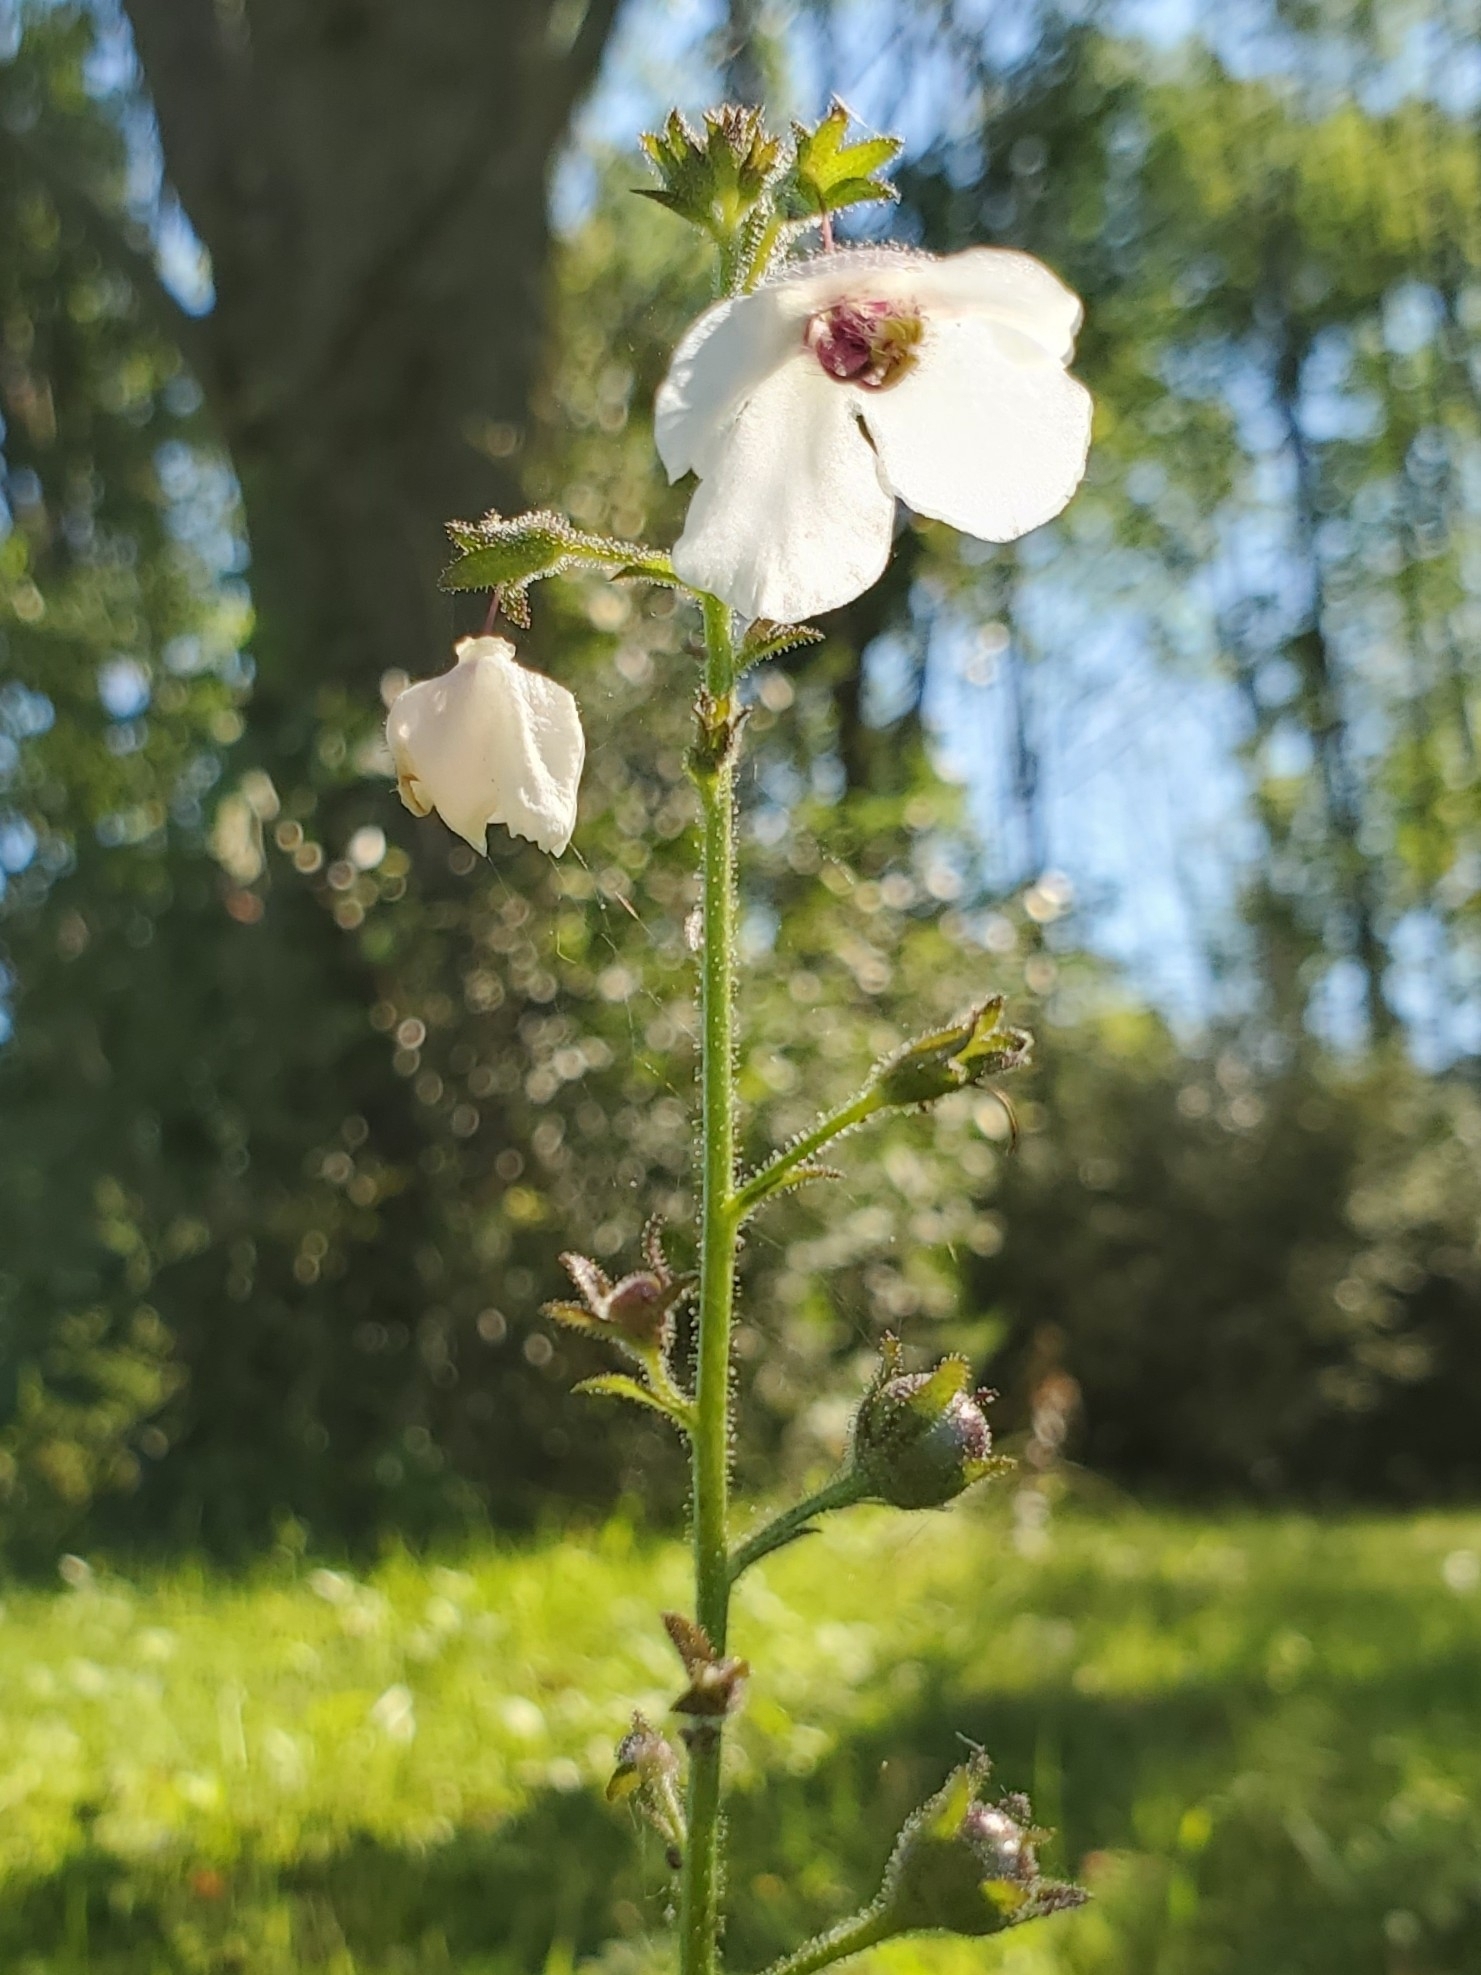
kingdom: Plantae
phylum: Tracheophyta
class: Magnoliopsida
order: Lamiales
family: Scrophulariaceae
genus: Verbascum
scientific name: Verbascum blattaria
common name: Moth mullein
